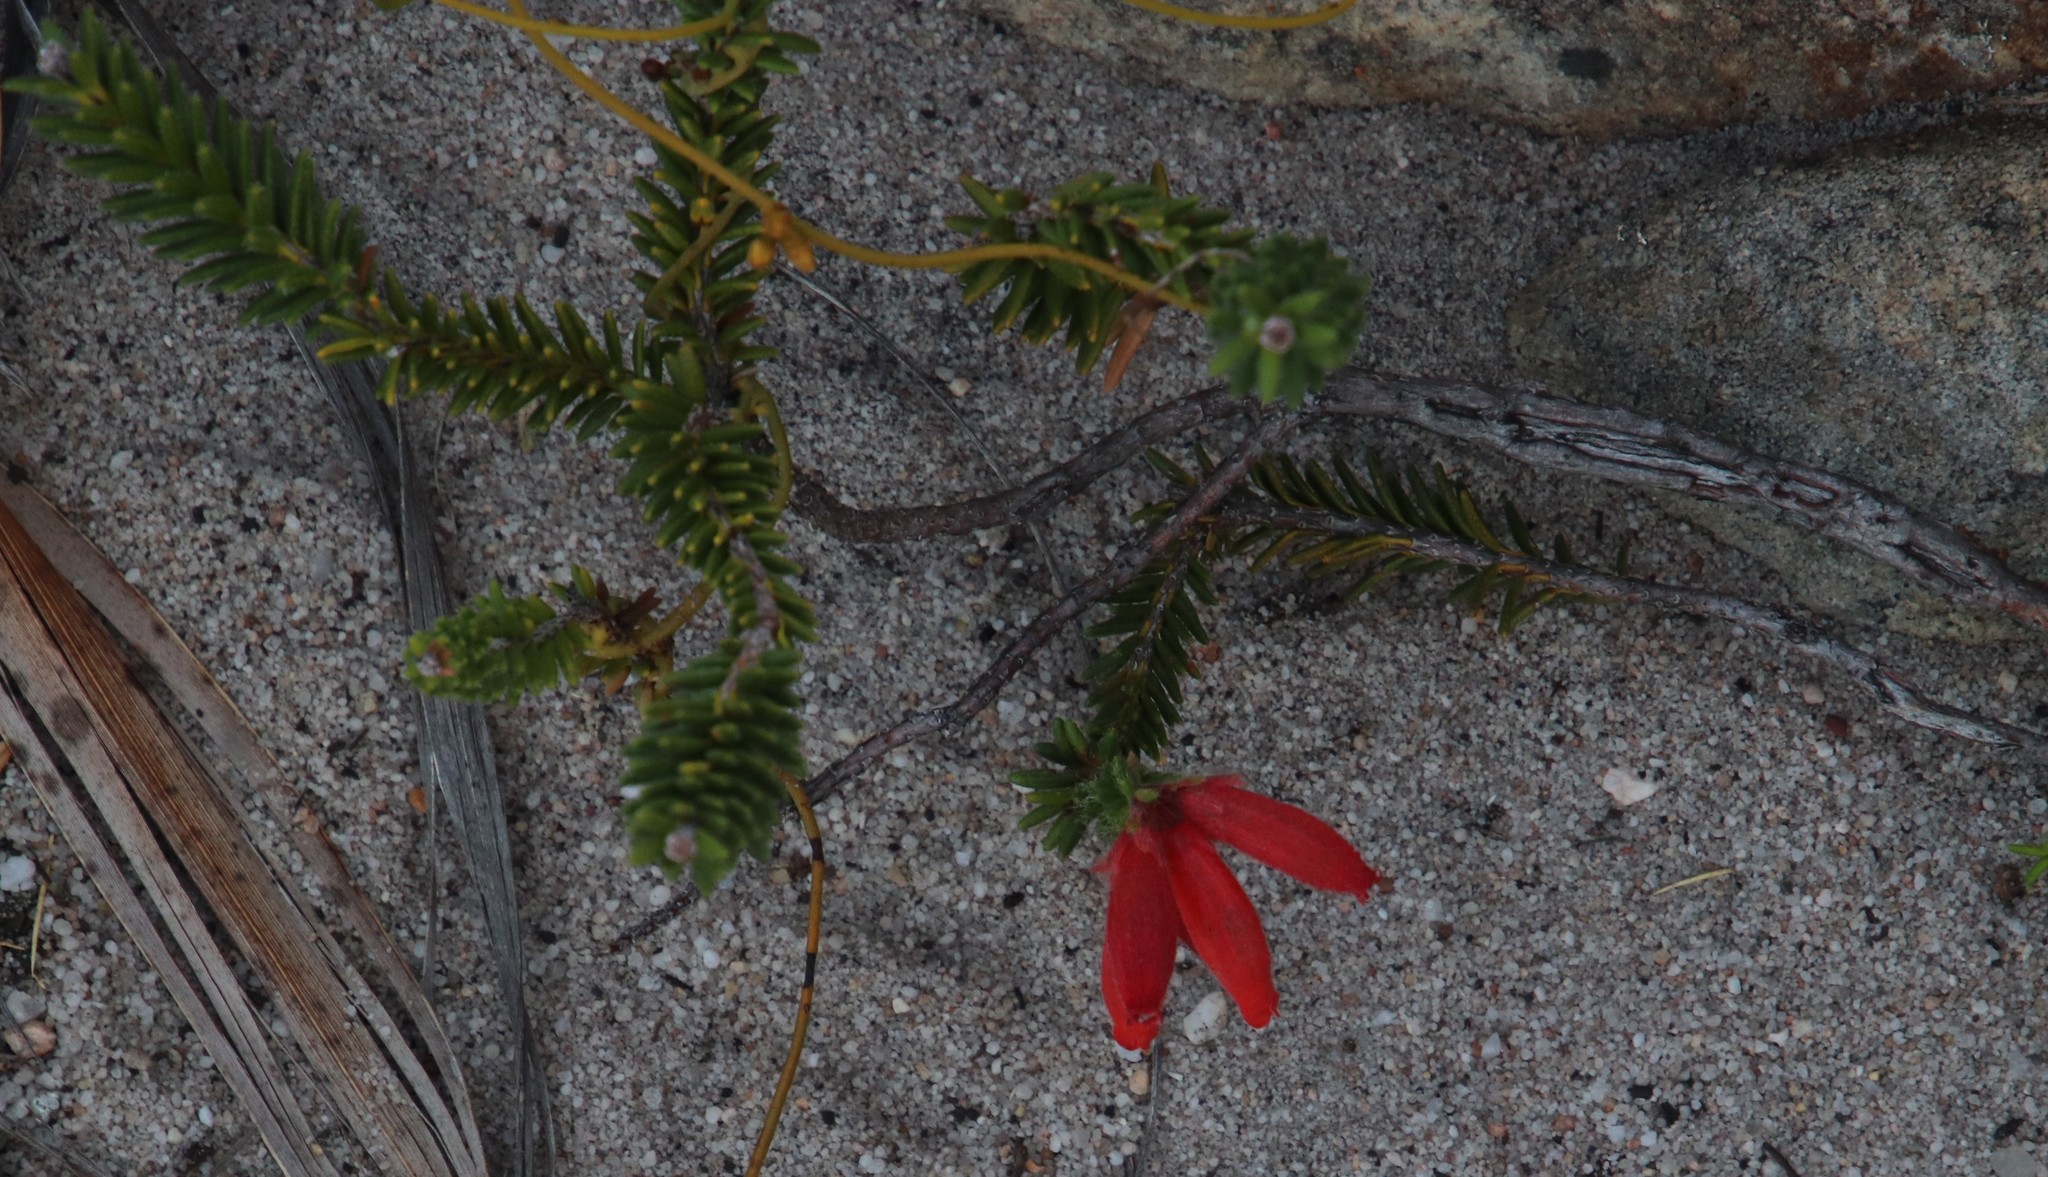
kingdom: Plantae
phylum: Tracheophyta
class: Magnoliopsida
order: Ericales
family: Ericaceae
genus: Erica
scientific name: Erica cerinthoides
